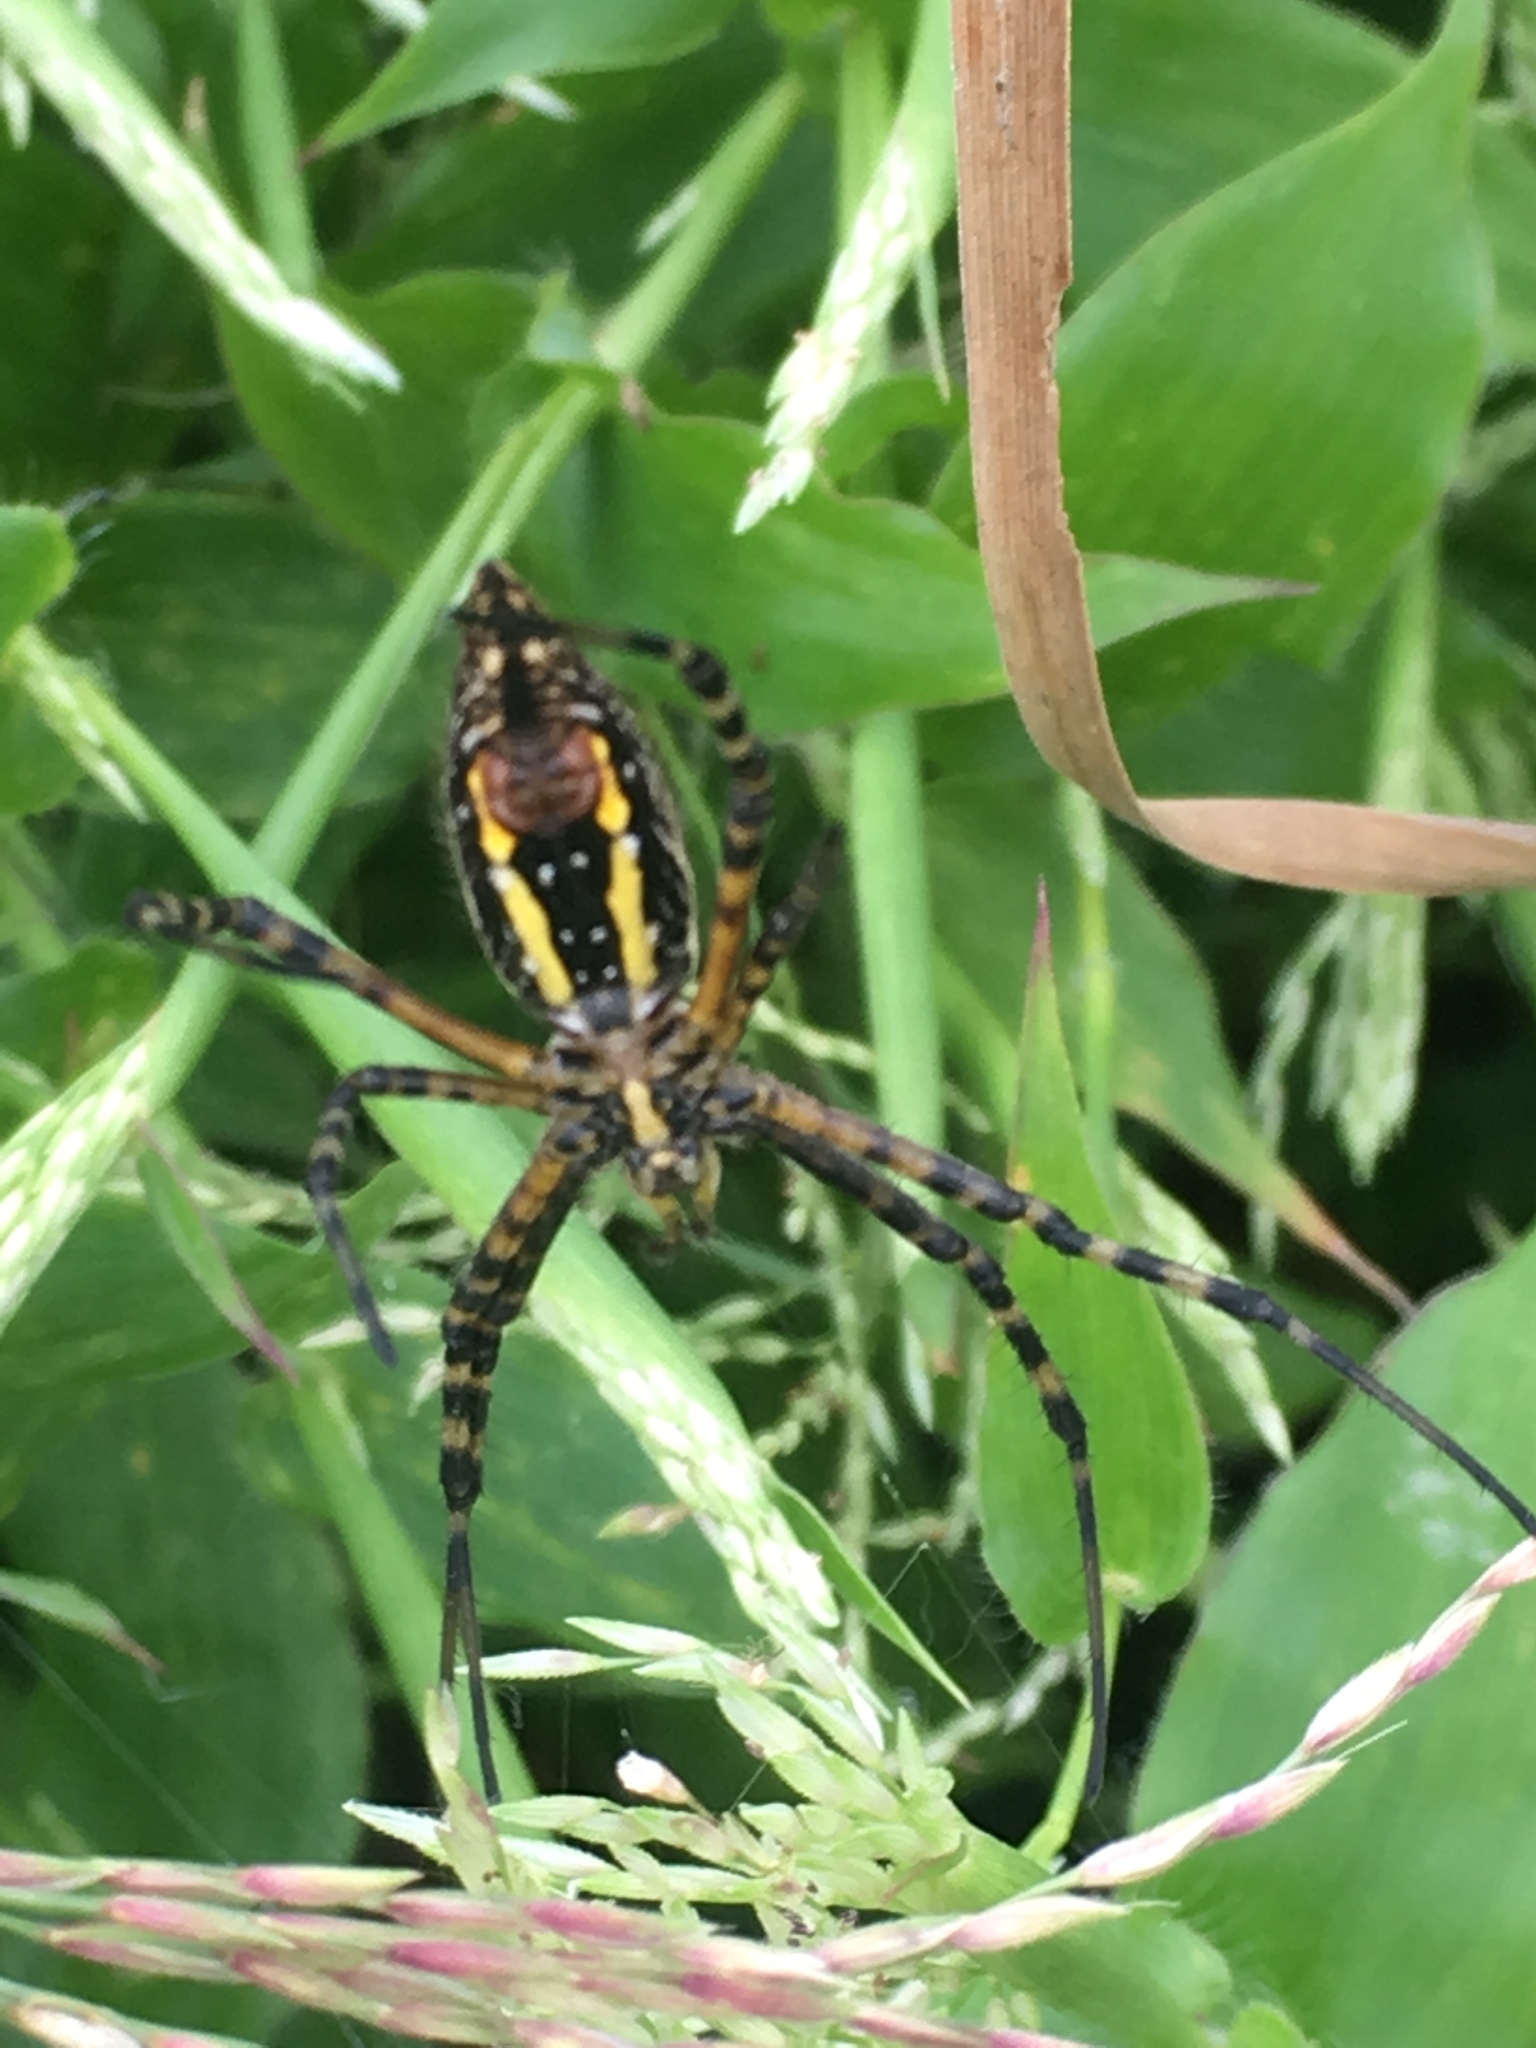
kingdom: Animalia
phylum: Arthropoda
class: Arachnida
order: Araneae
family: Araneidae
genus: Argiope
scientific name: Argiope trifasciata
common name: Banded garden spider
